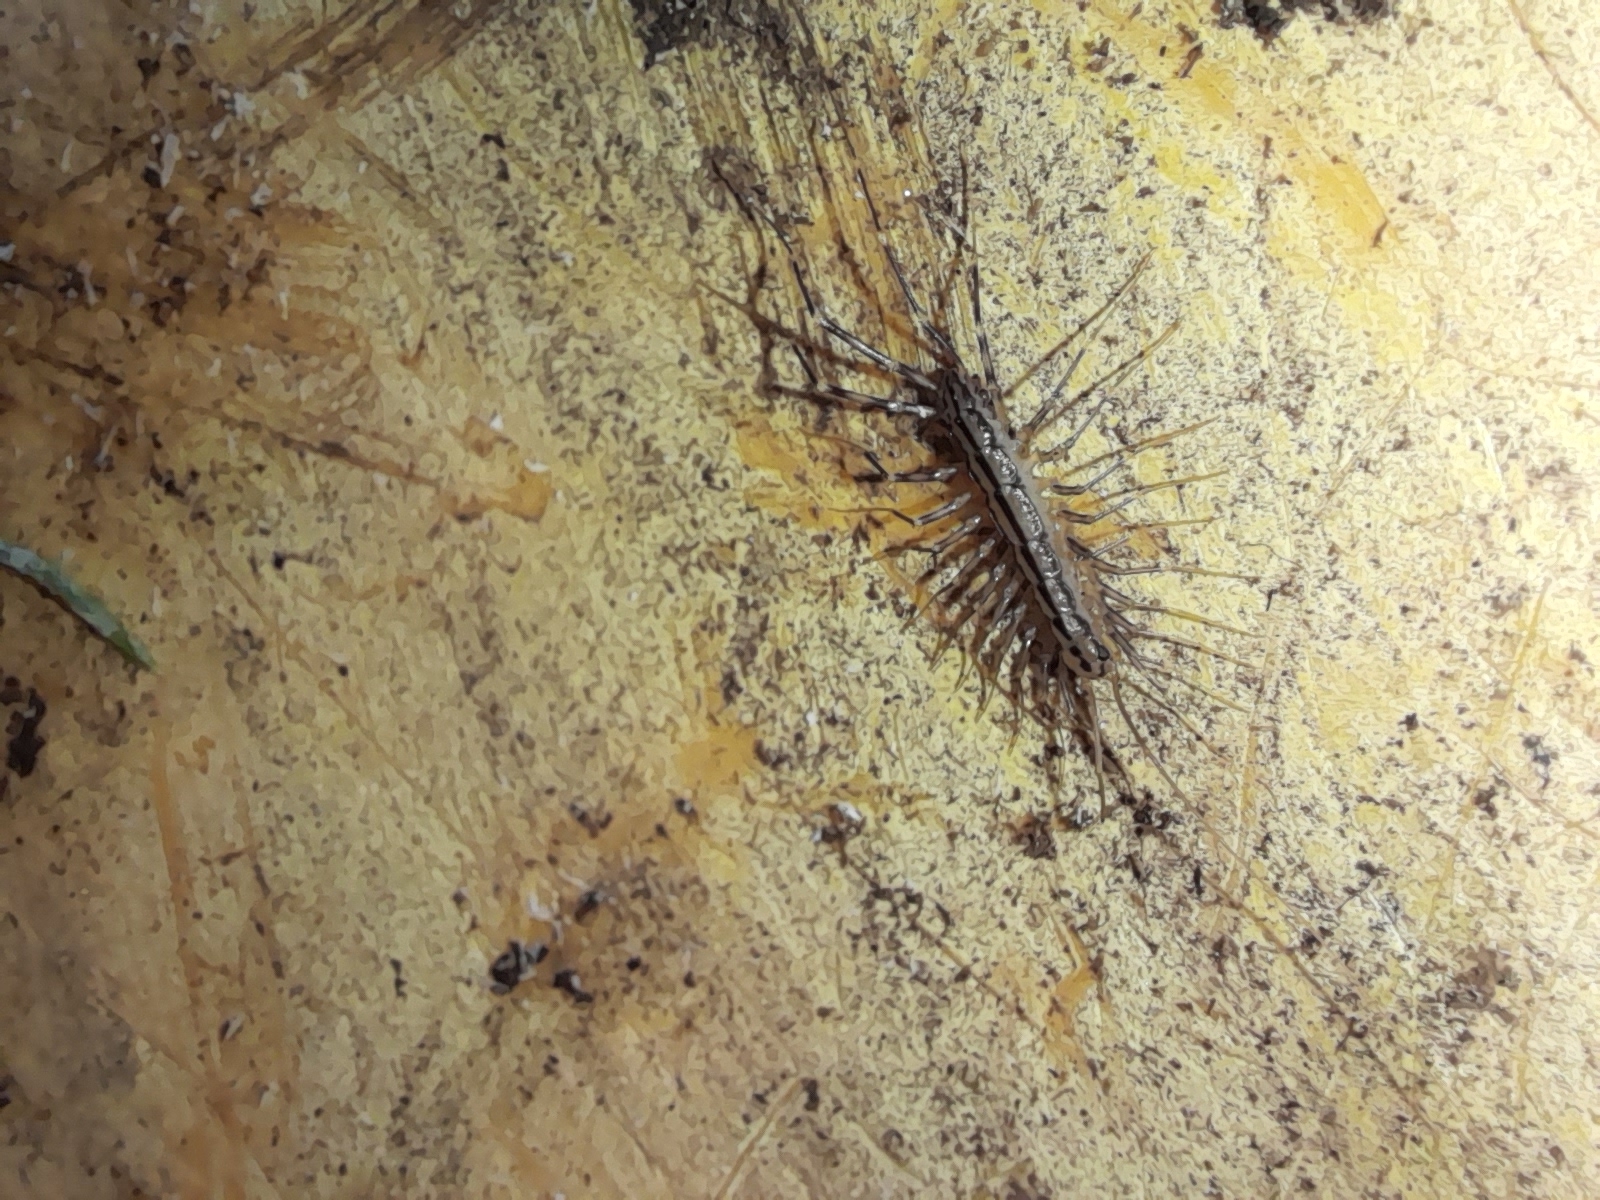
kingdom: Animalia
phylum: Arthropoda
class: Chilopoda
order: Scutigeromorpha
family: Scutigeridae
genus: Scutigera
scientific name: Scutigera coleoptrata
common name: House centipede
